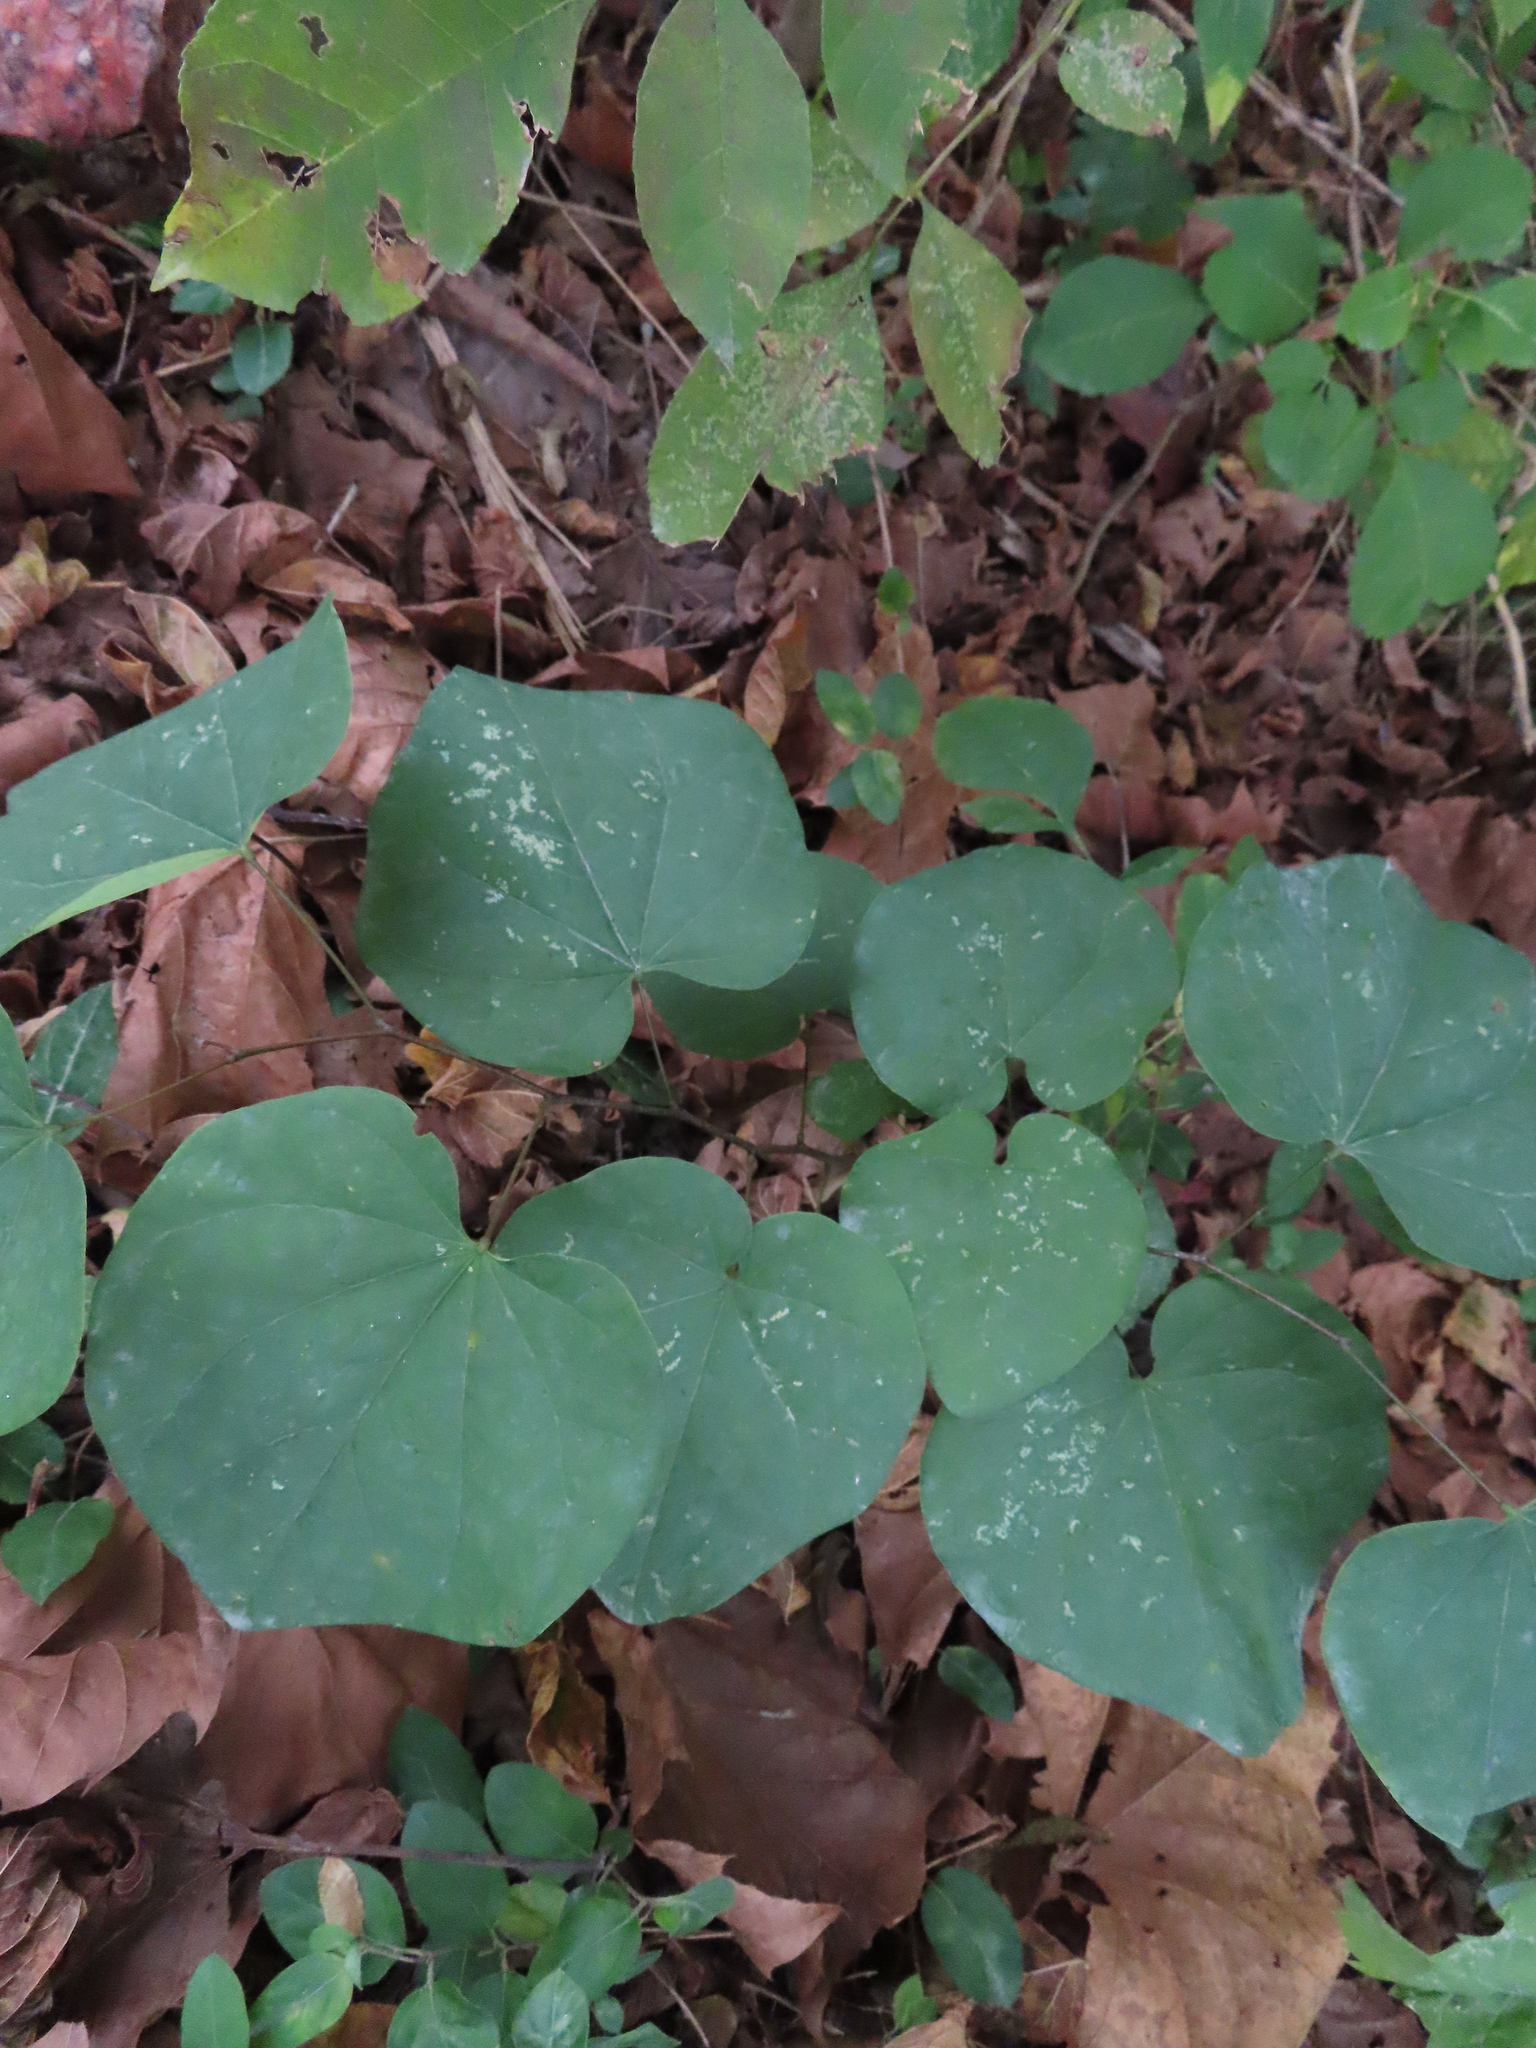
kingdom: Plantae
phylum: Tracheophyta
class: Magnoliopsida
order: Fabales
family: Fabaceae
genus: Cercis
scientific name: Cercis canadensis
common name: Eastern redbud
